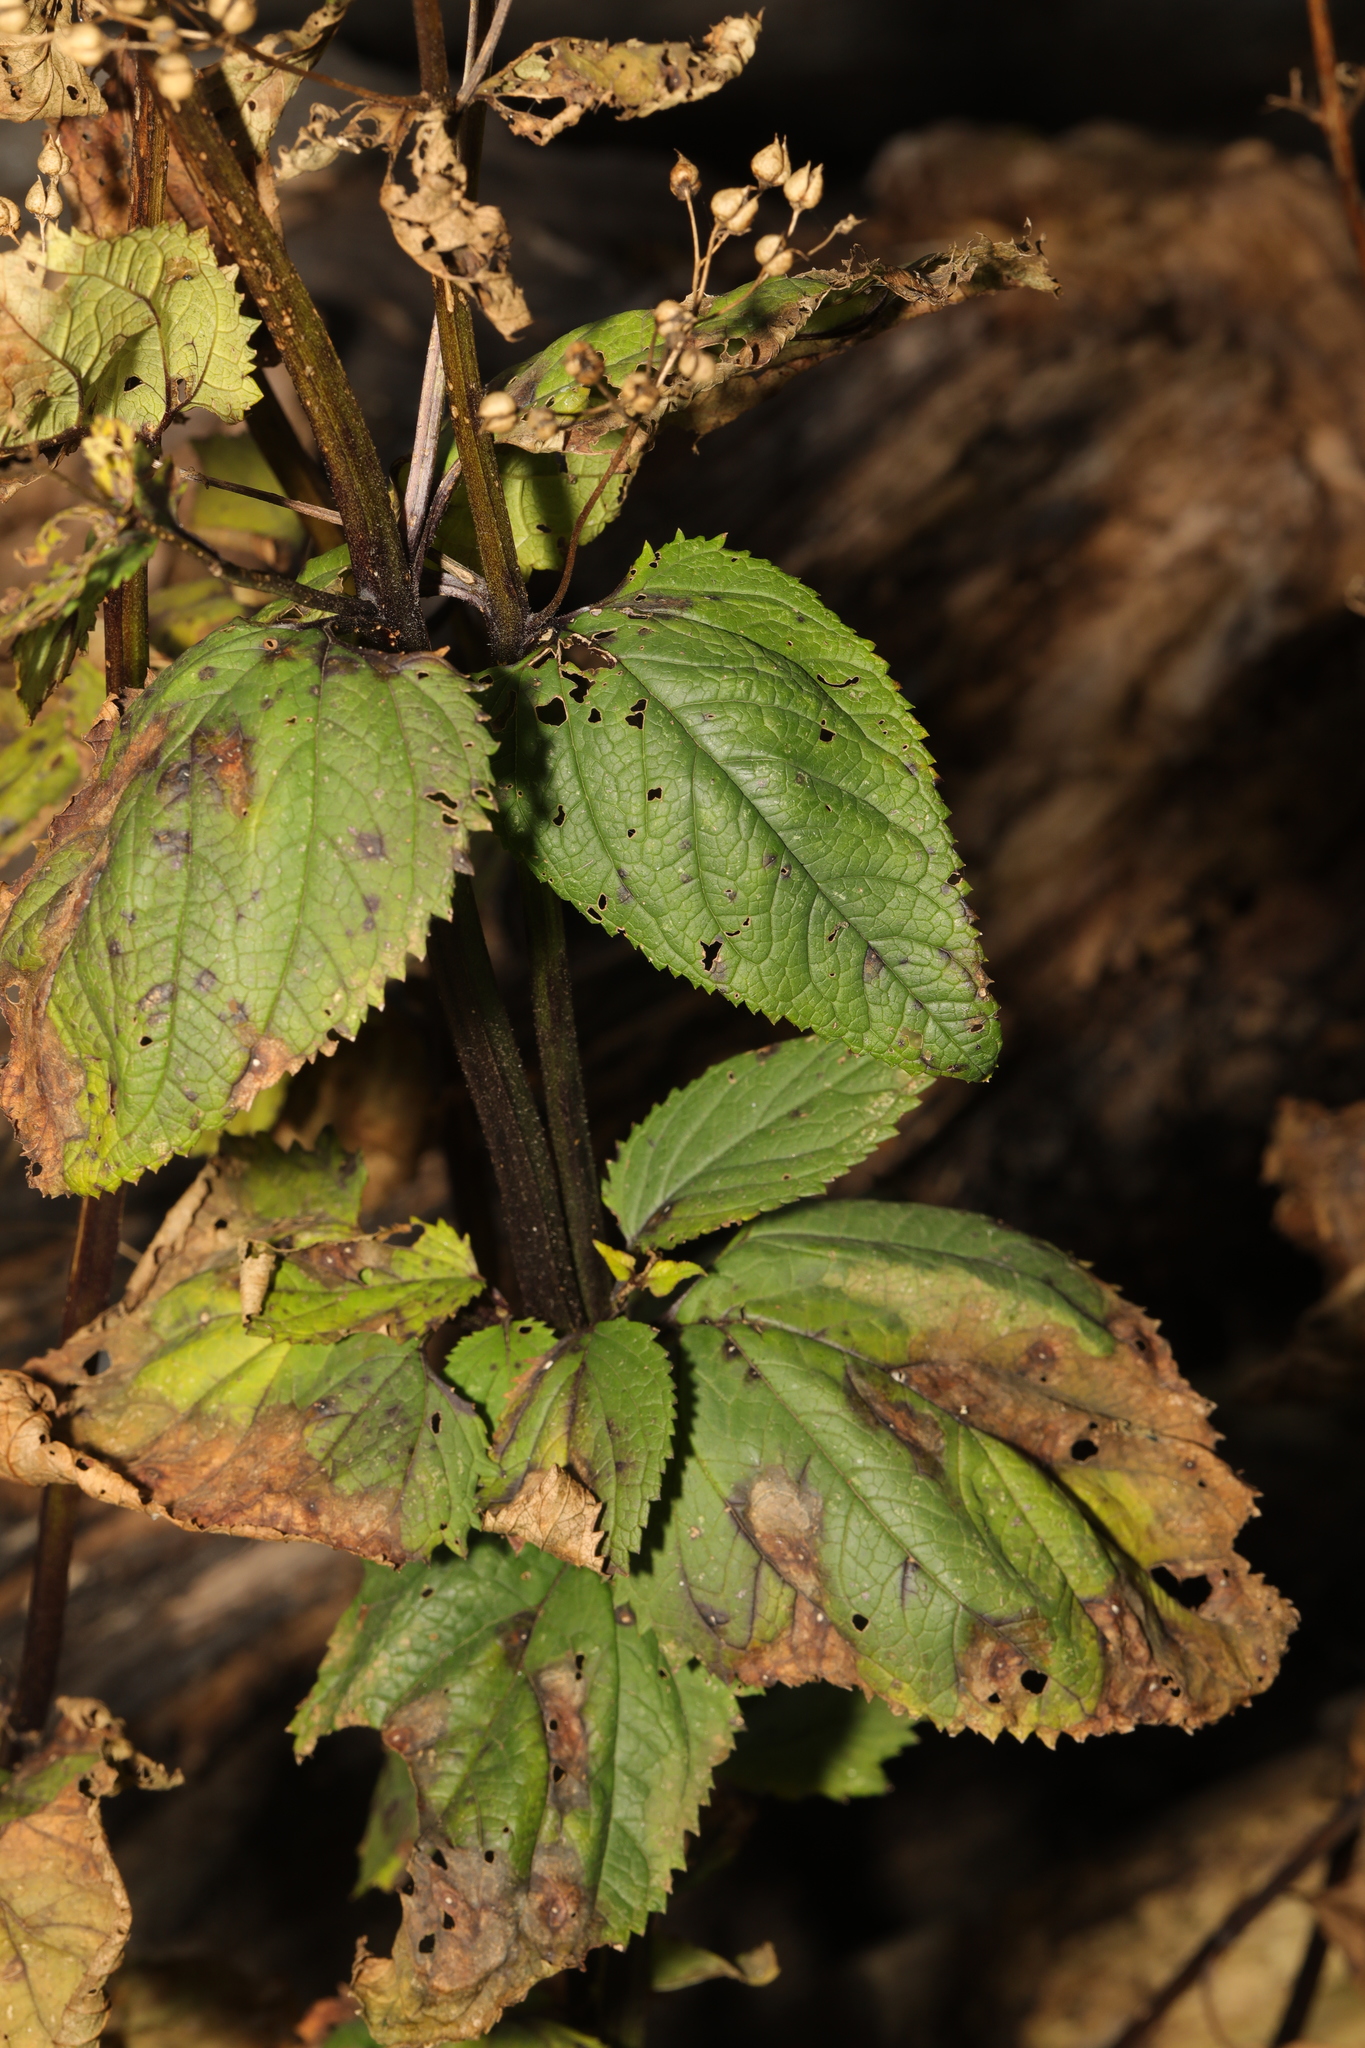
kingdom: Plantae
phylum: Tracheophyta
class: Magnoliopsida
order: Lamiales
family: Scrophulariaceae
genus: Scrophularia
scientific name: Scrophularia nodosa
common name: Common figwort
